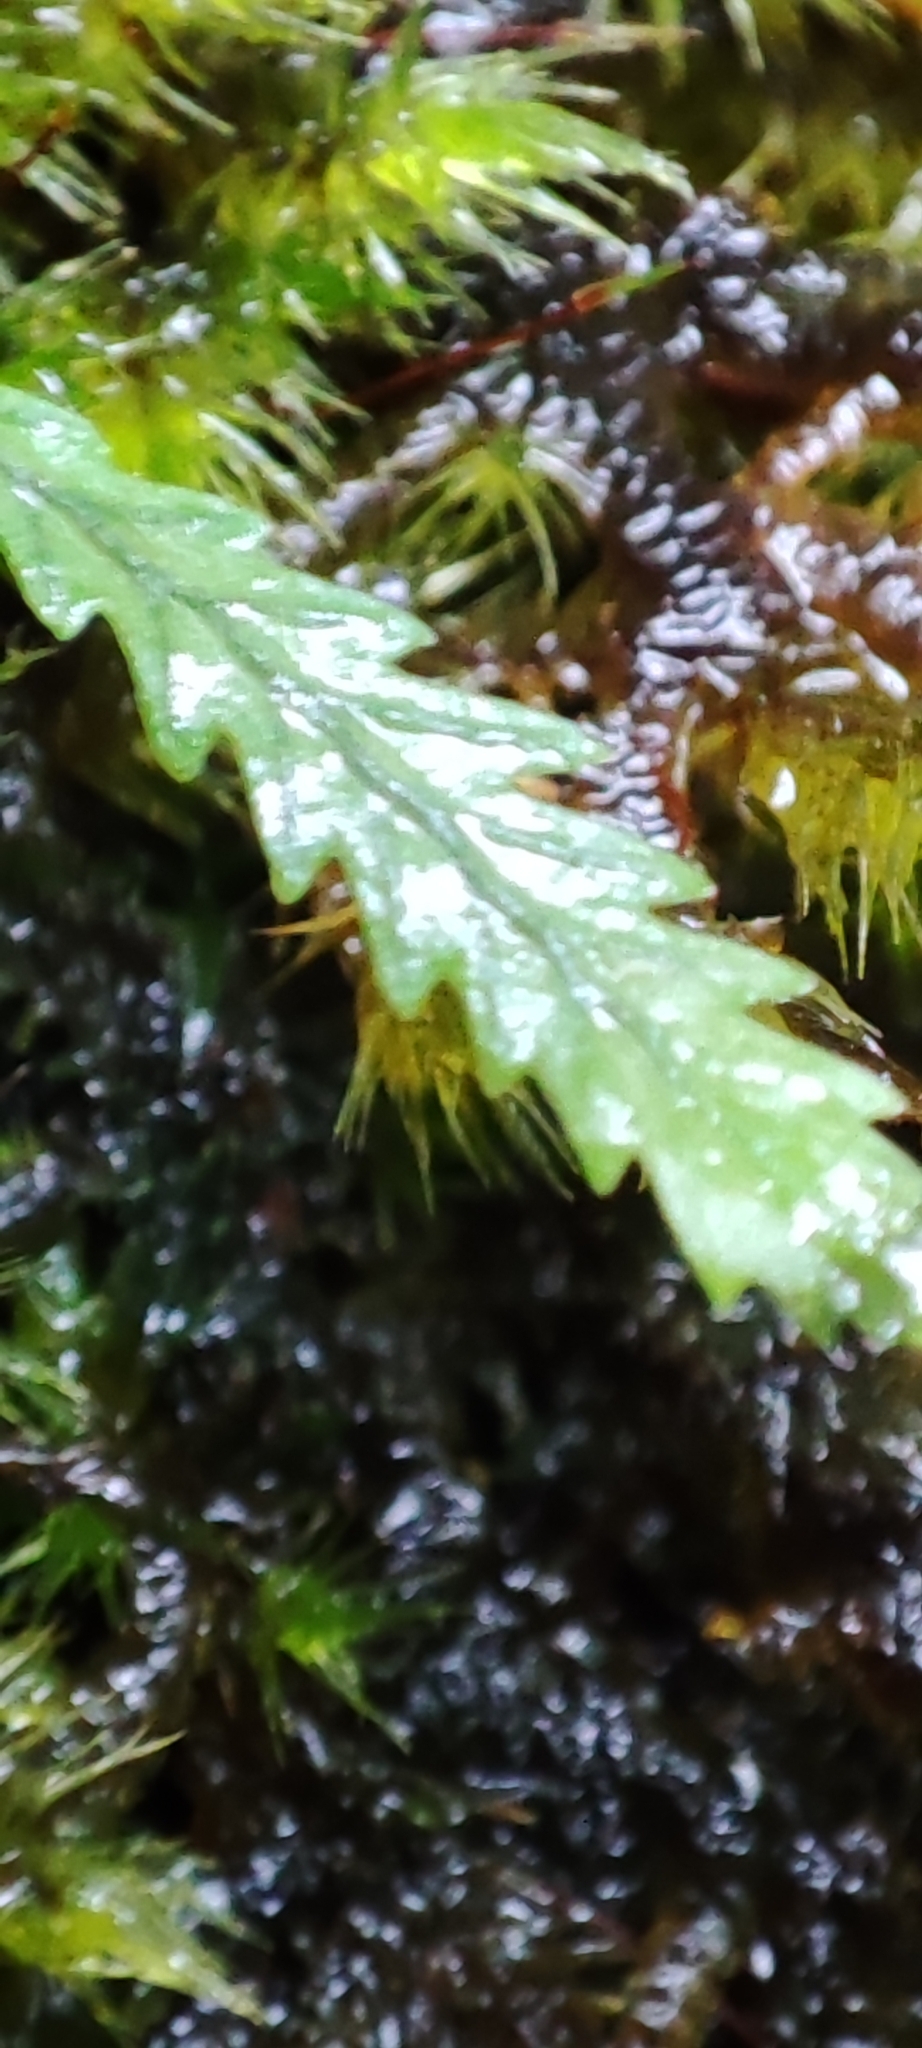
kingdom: Plantae
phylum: Tracheophyta
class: Polypodiopsida
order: Polypodiales
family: Polypodiaceae
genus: Cochlidium
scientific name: Cochlidium serrulatum
